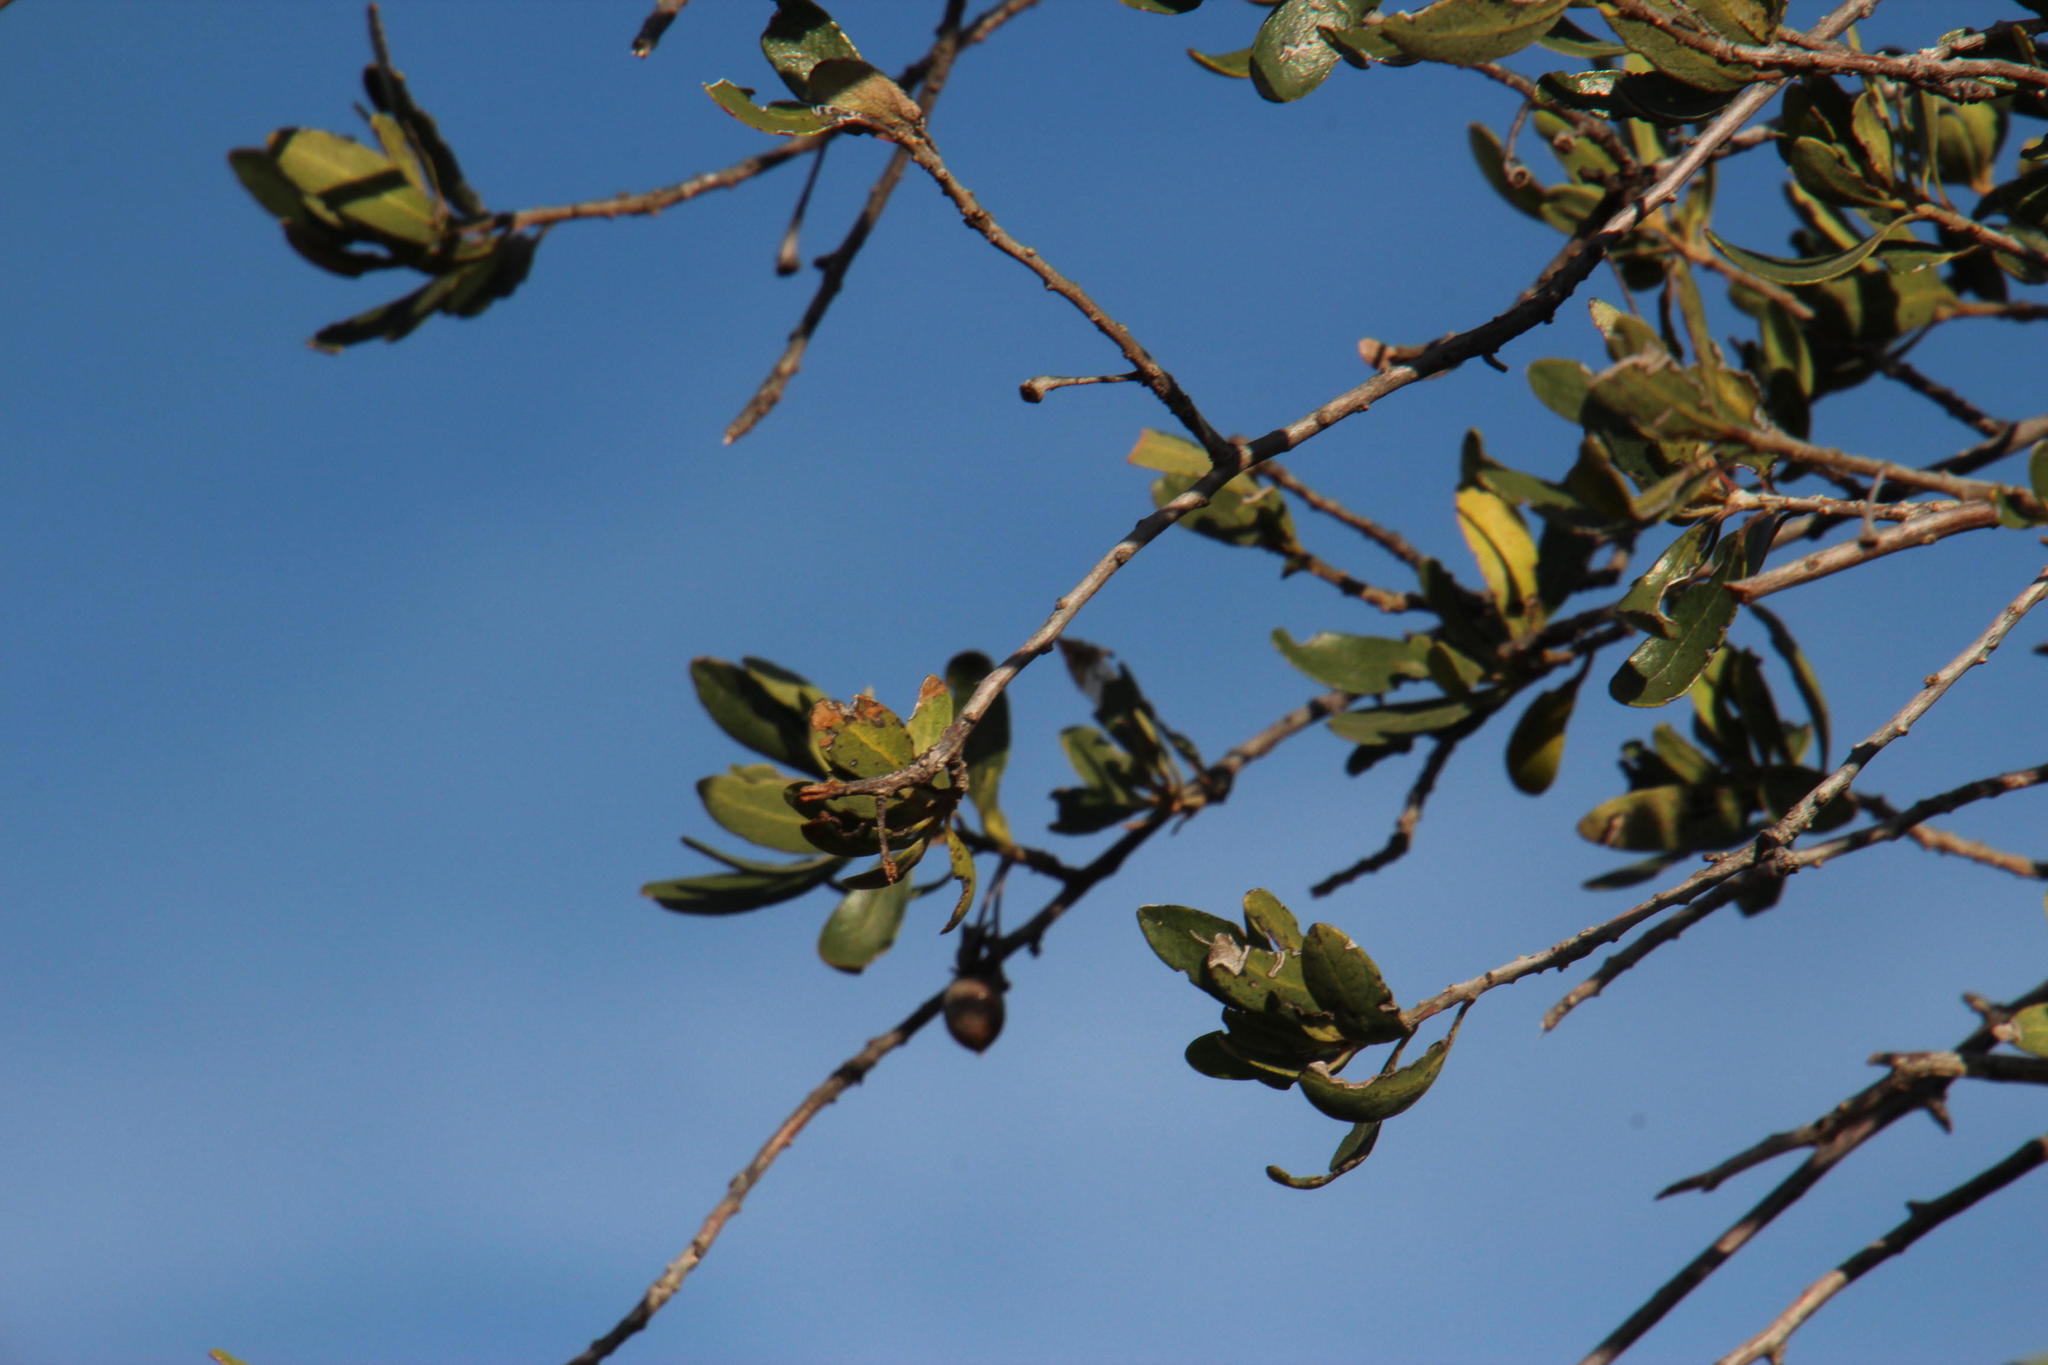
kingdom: Plantae
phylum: Tracheophyta
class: Magnoliopsida
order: Ericales
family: Ebenaceae
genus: Diospyros
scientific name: Diospyros dichrophylla
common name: Common star-apple
